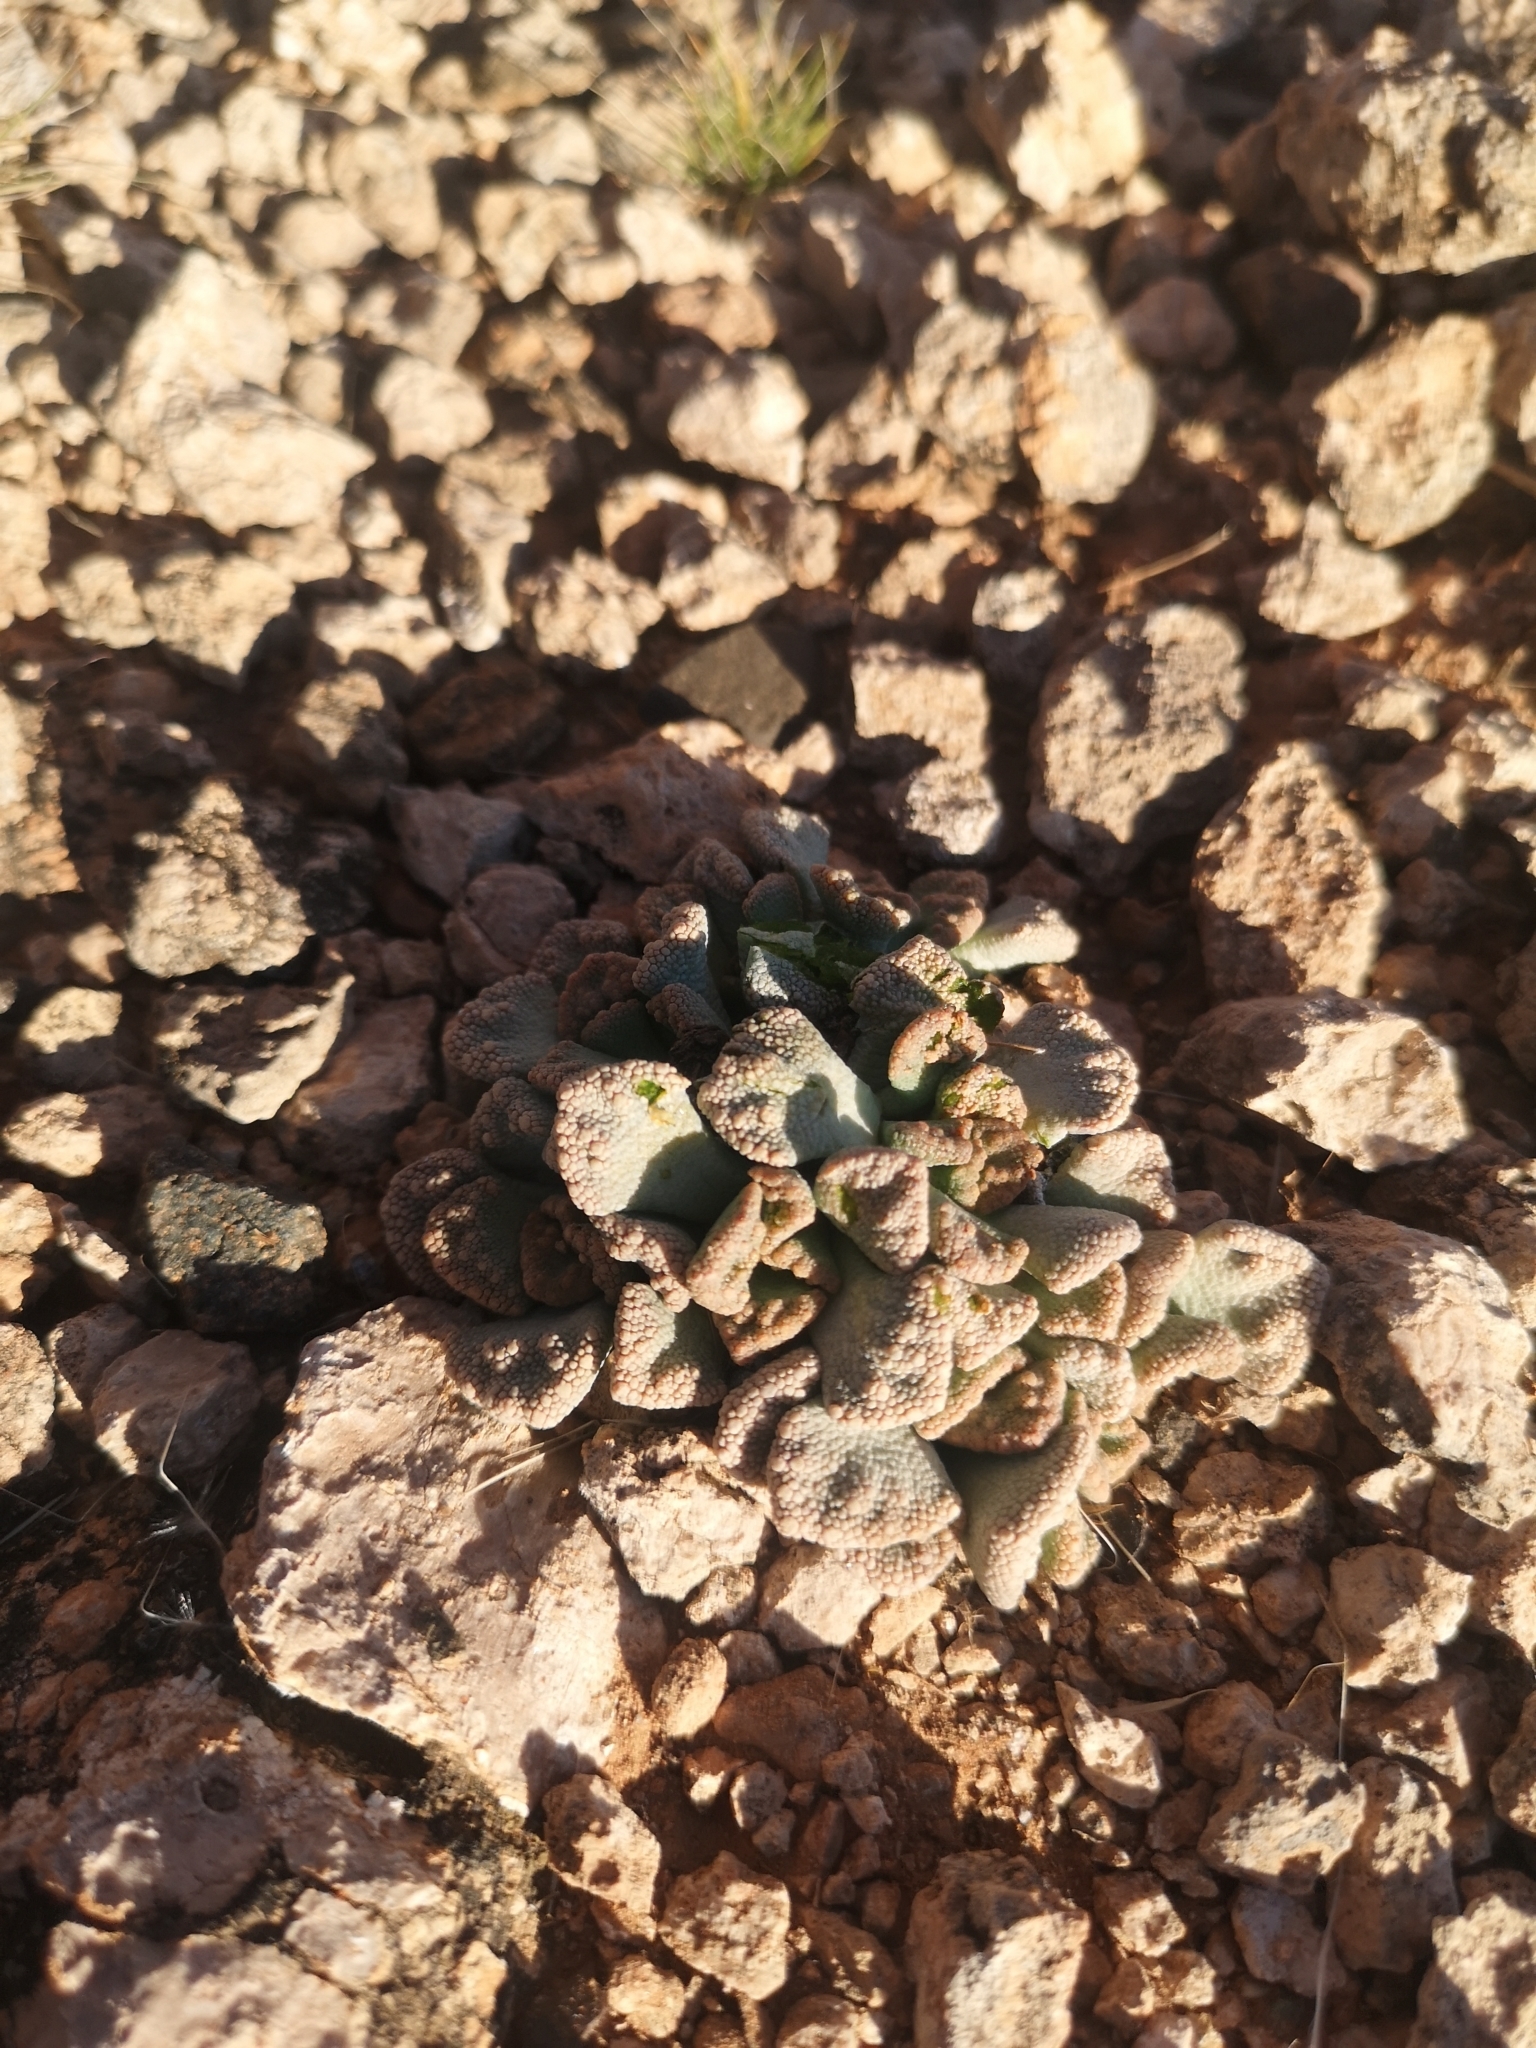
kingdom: Plantae
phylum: Tracheophyta
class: Magnoliopsida
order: Caryophyllales
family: Aizoaceae
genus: Titanopsis
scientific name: Titanopsis calcarea
